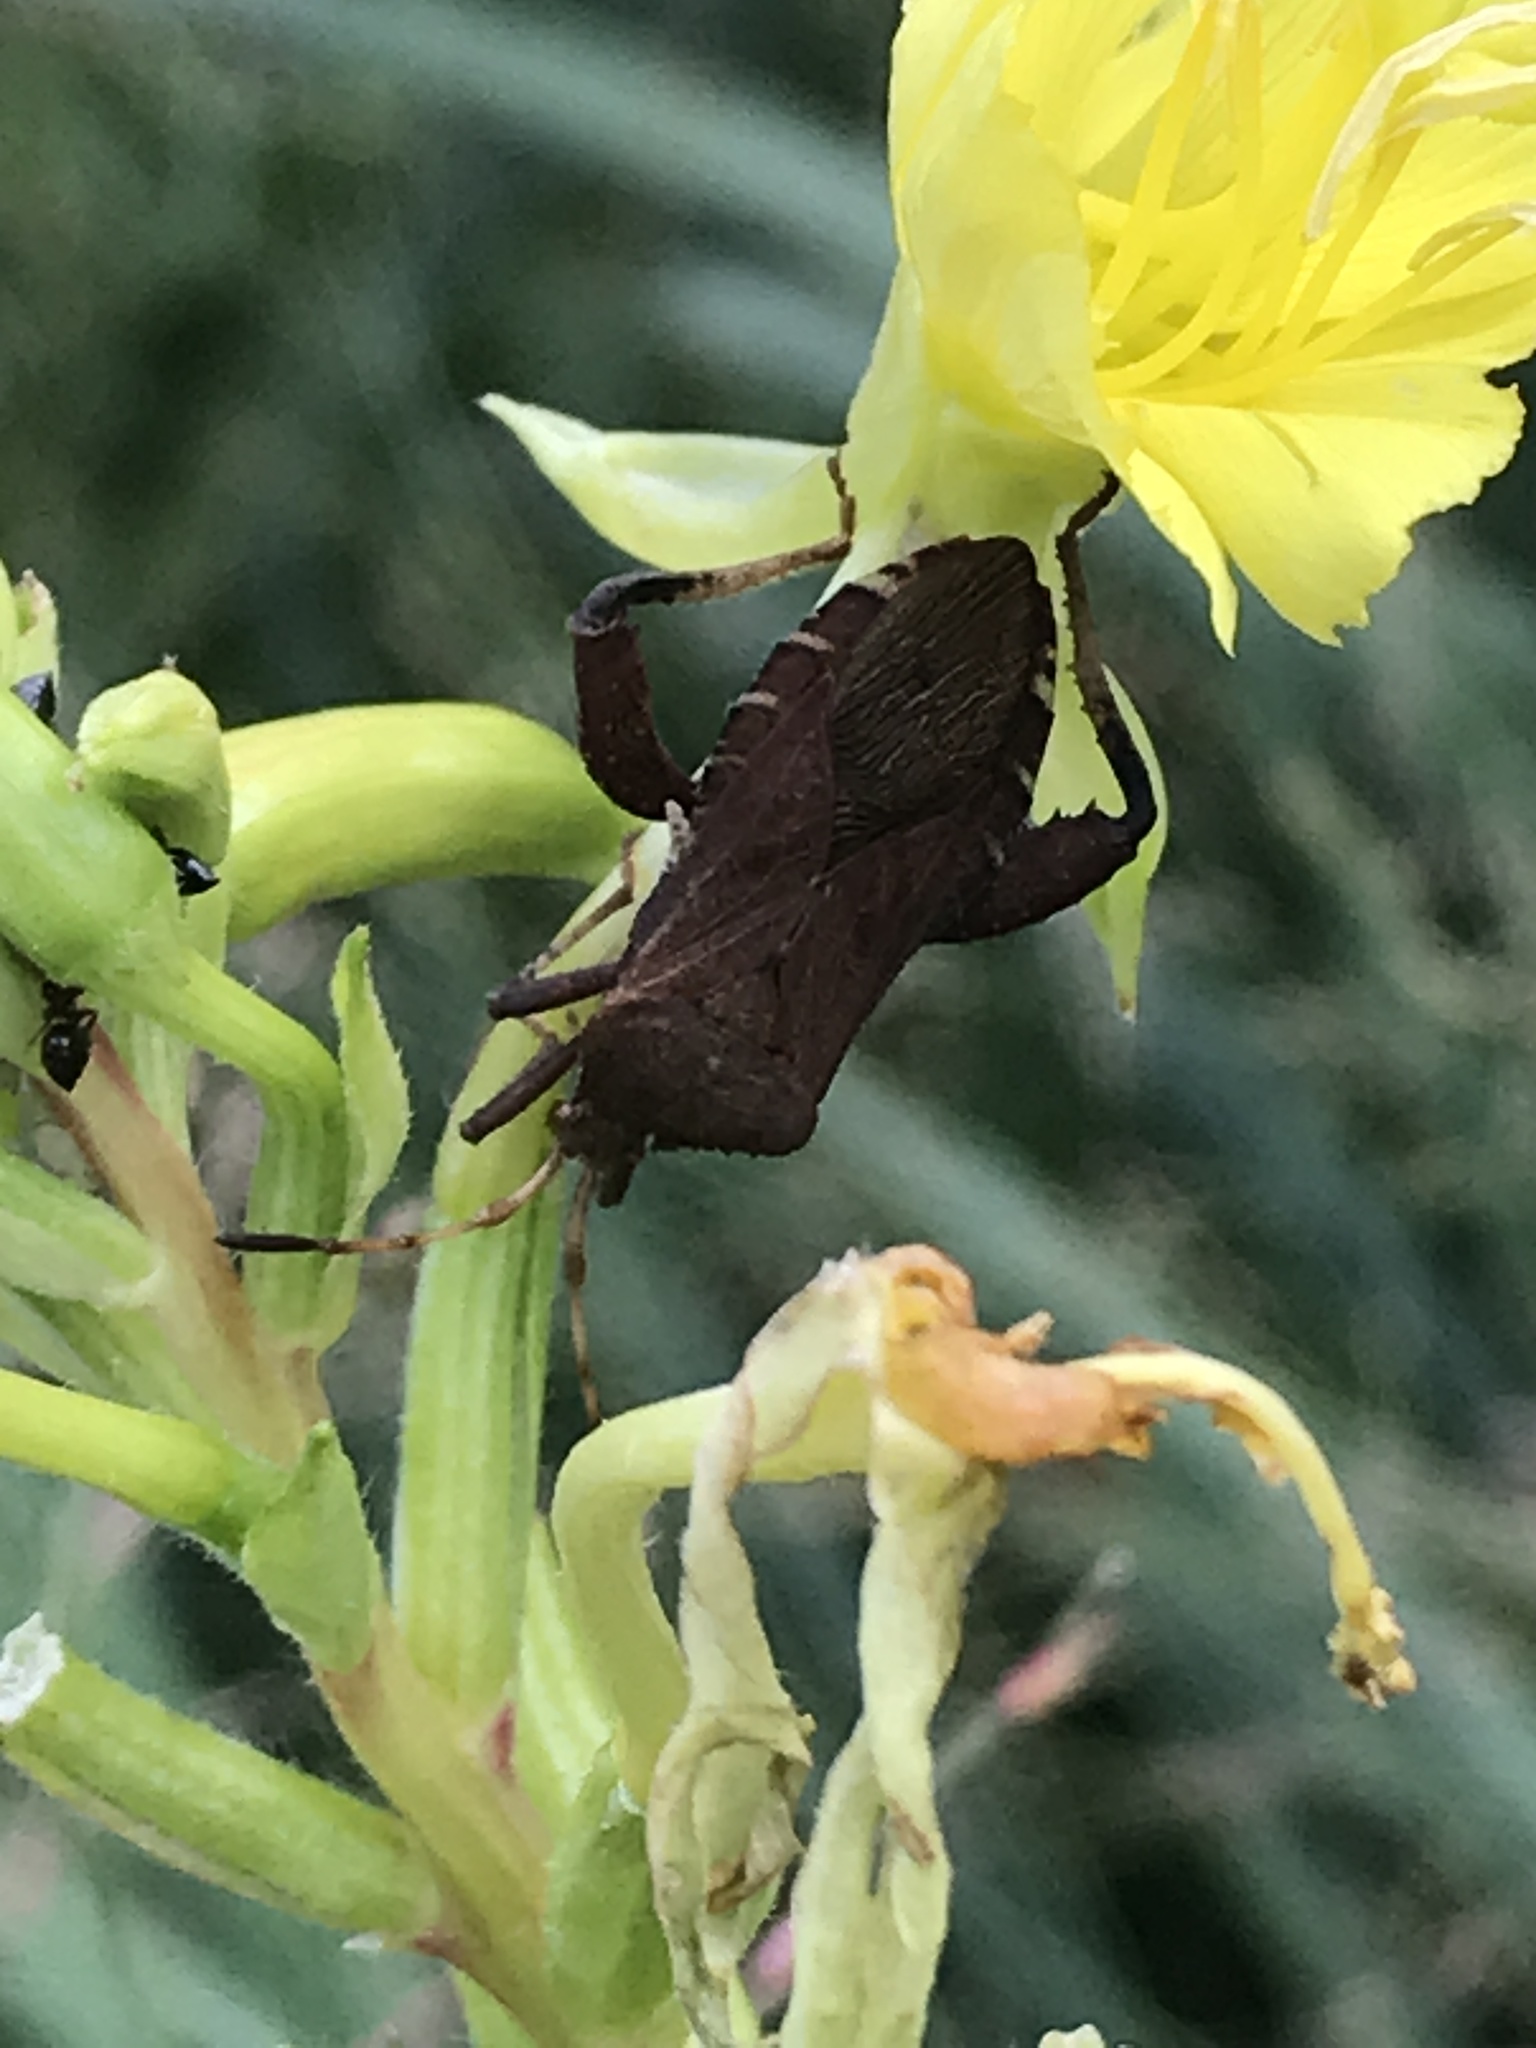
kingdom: Animalia
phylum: Arthropoda
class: Insecta
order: Hemiptera
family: Coreidae
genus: Euthochtha
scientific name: Euthochtha galeator
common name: Helmeted squash bug
